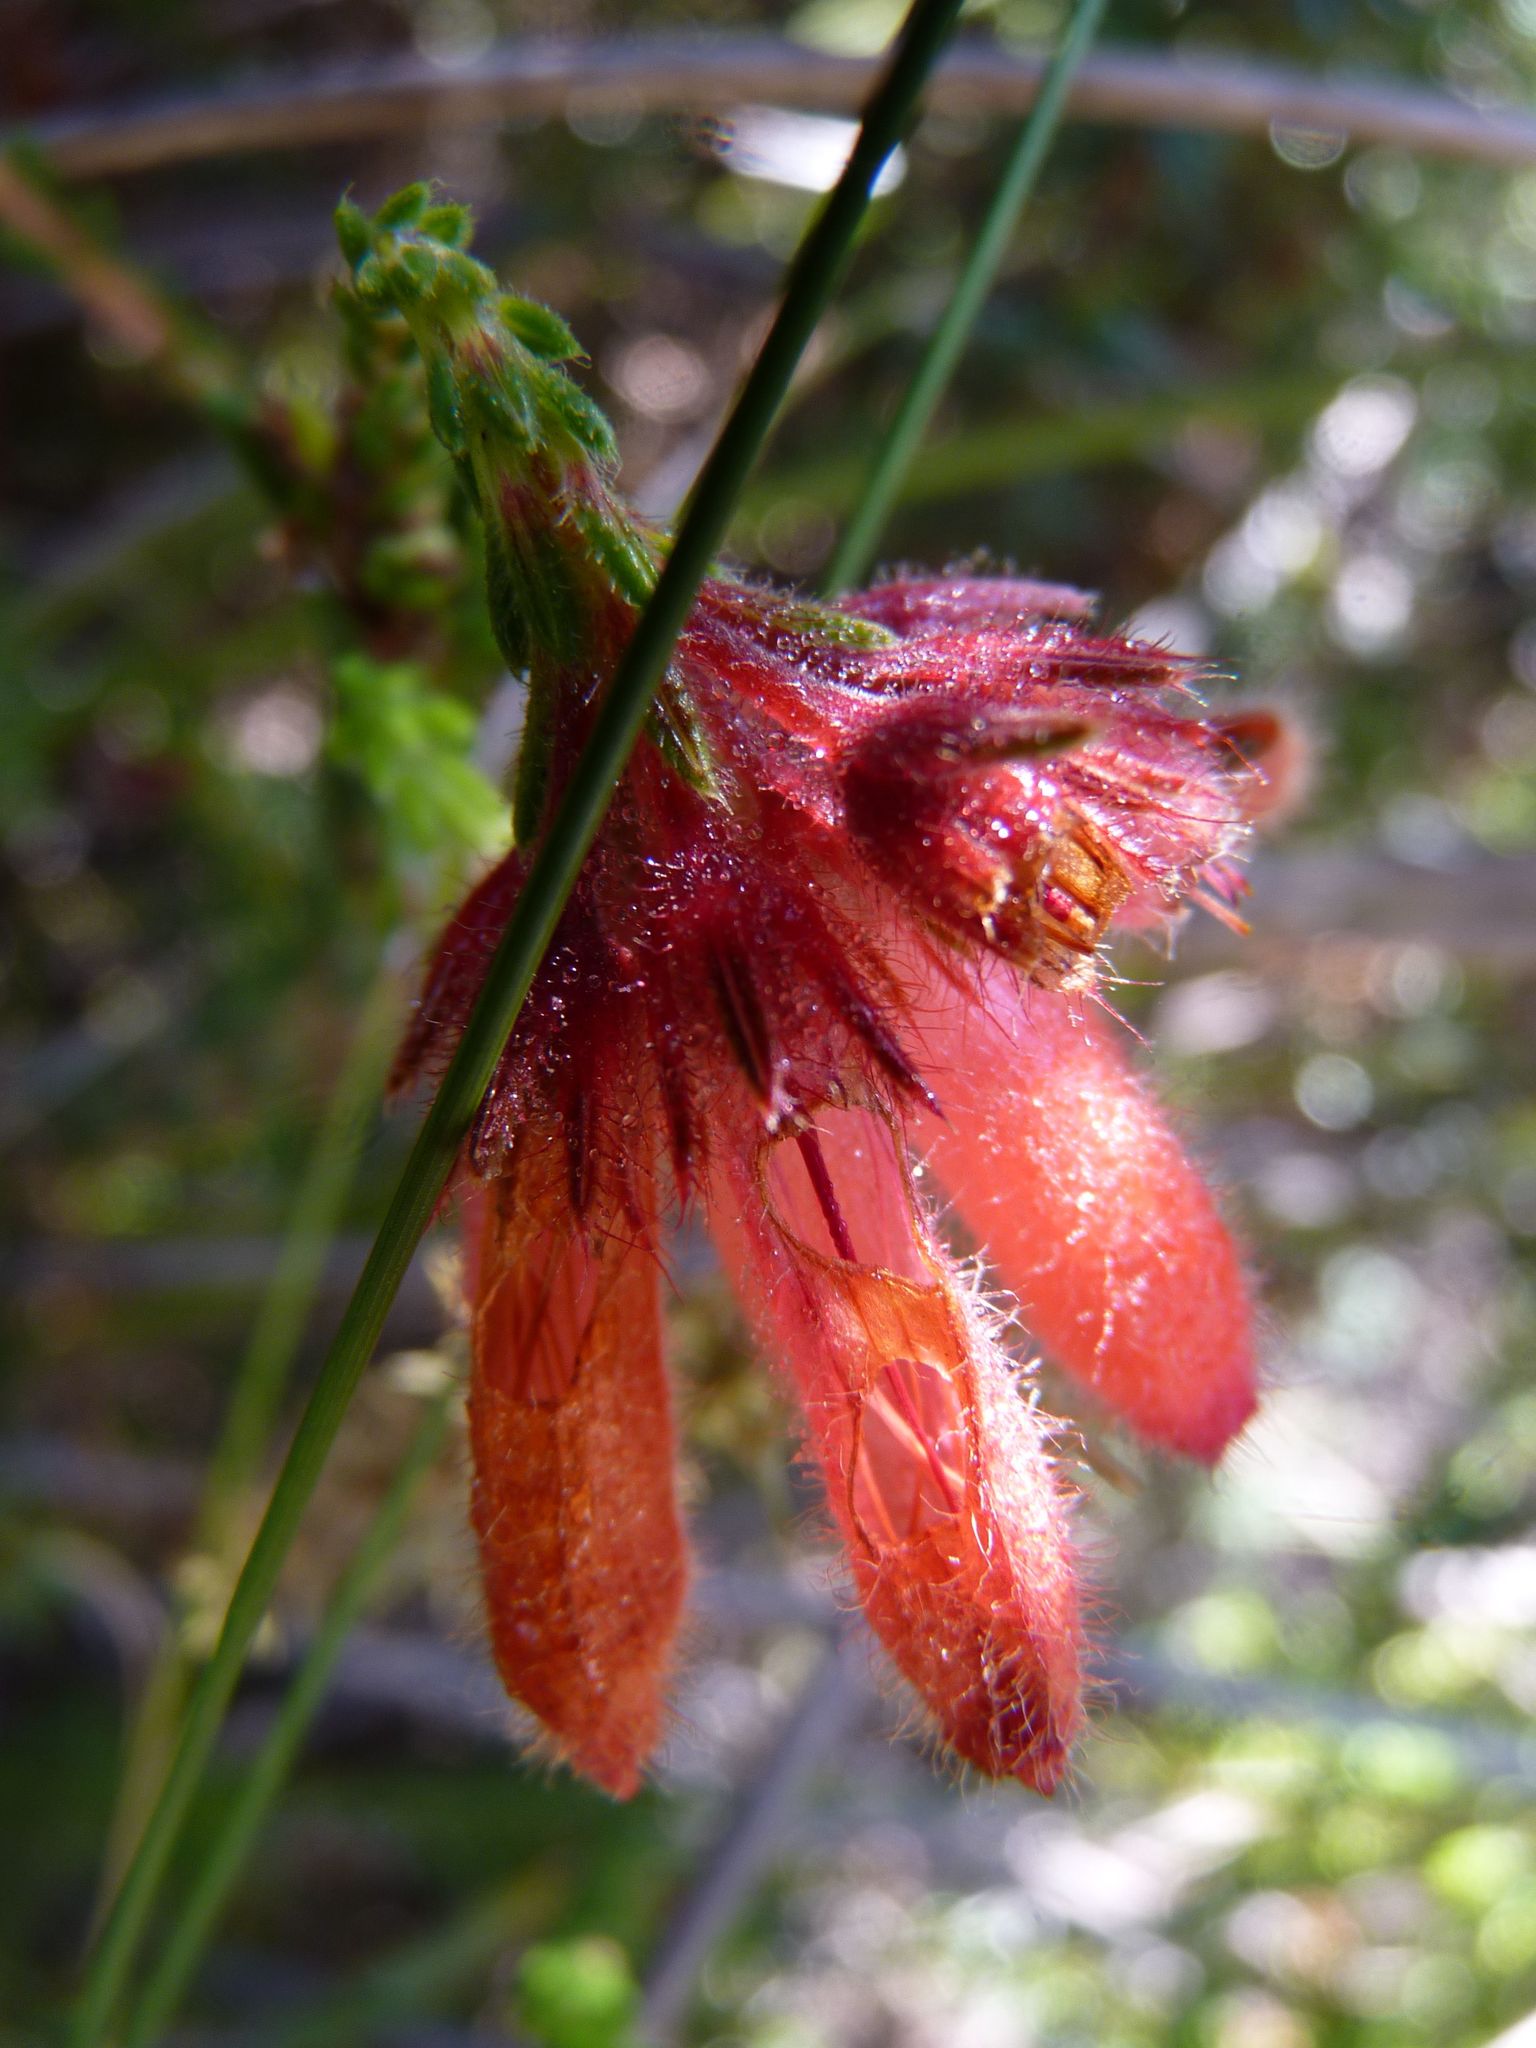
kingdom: Plantae
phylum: Tracheophyta
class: Magnoliopsida
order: Ericales
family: Ericaceae
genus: Erica
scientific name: Erica cerinthoides
